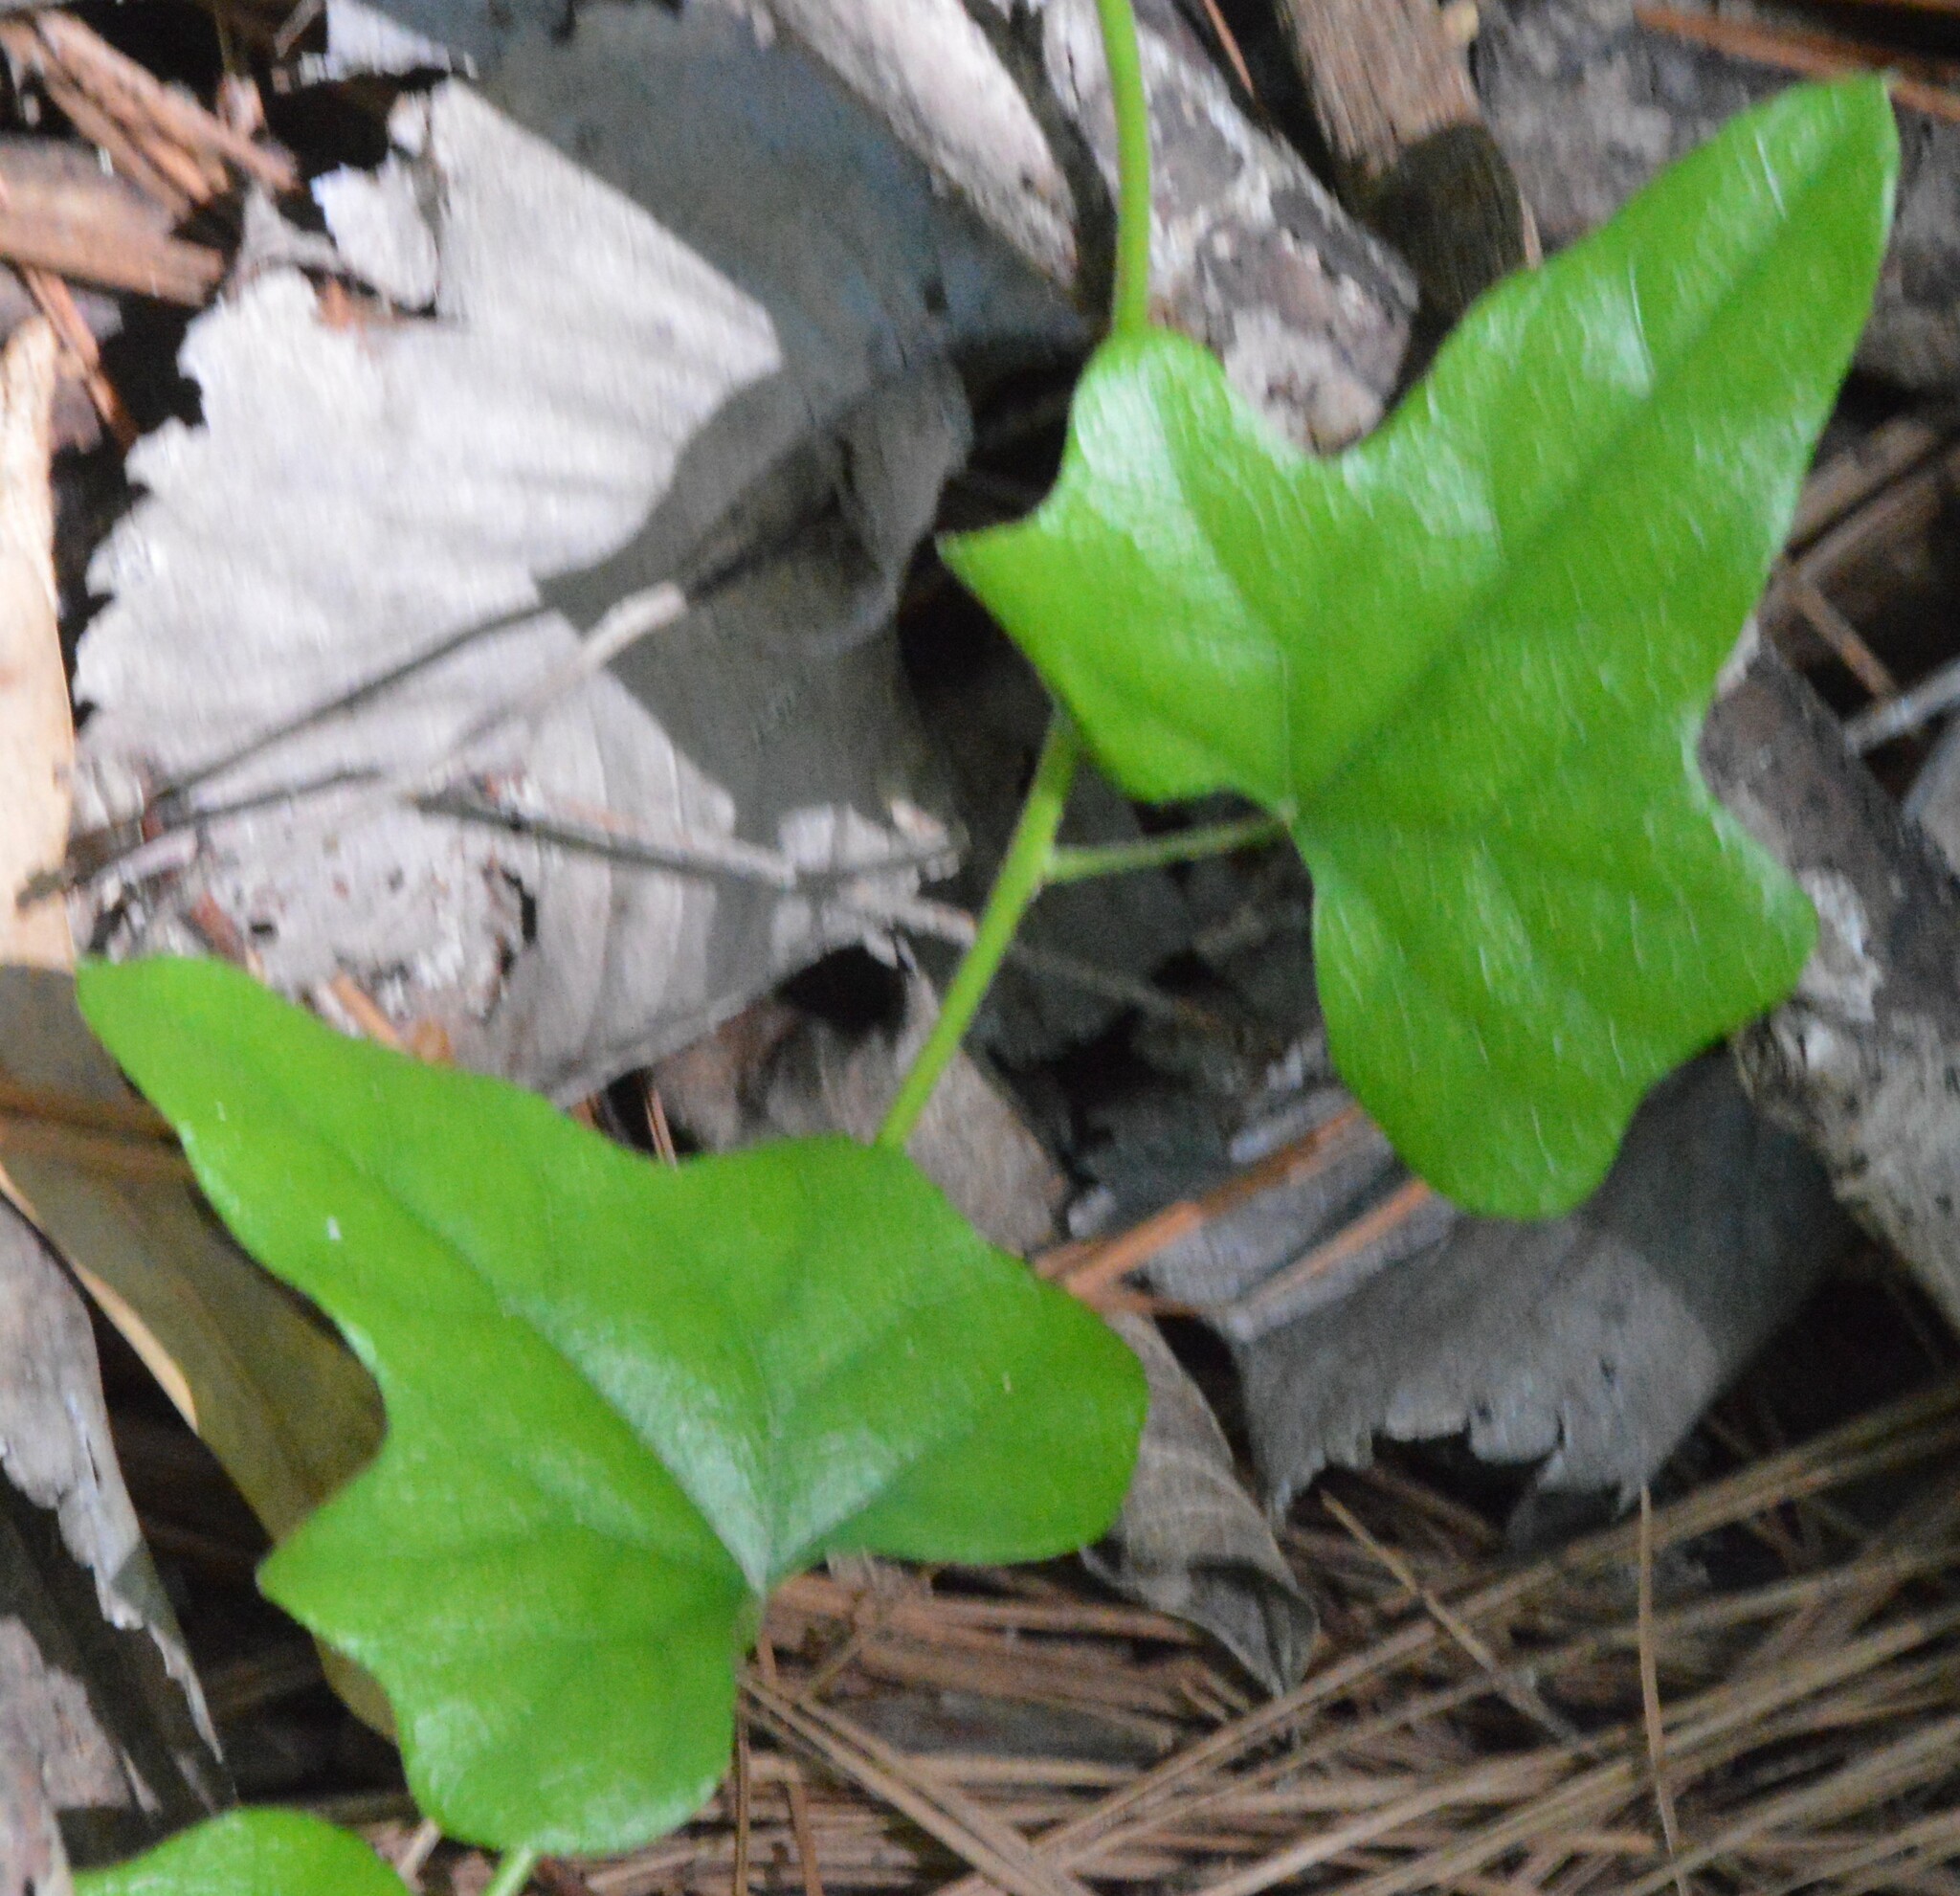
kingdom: Plantae
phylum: Tracheophyta
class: Magnoliopsida
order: Ranunculales
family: Menispermaceae
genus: Cocculus
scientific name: Cocculus carolinus
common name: Carolina moonseed
